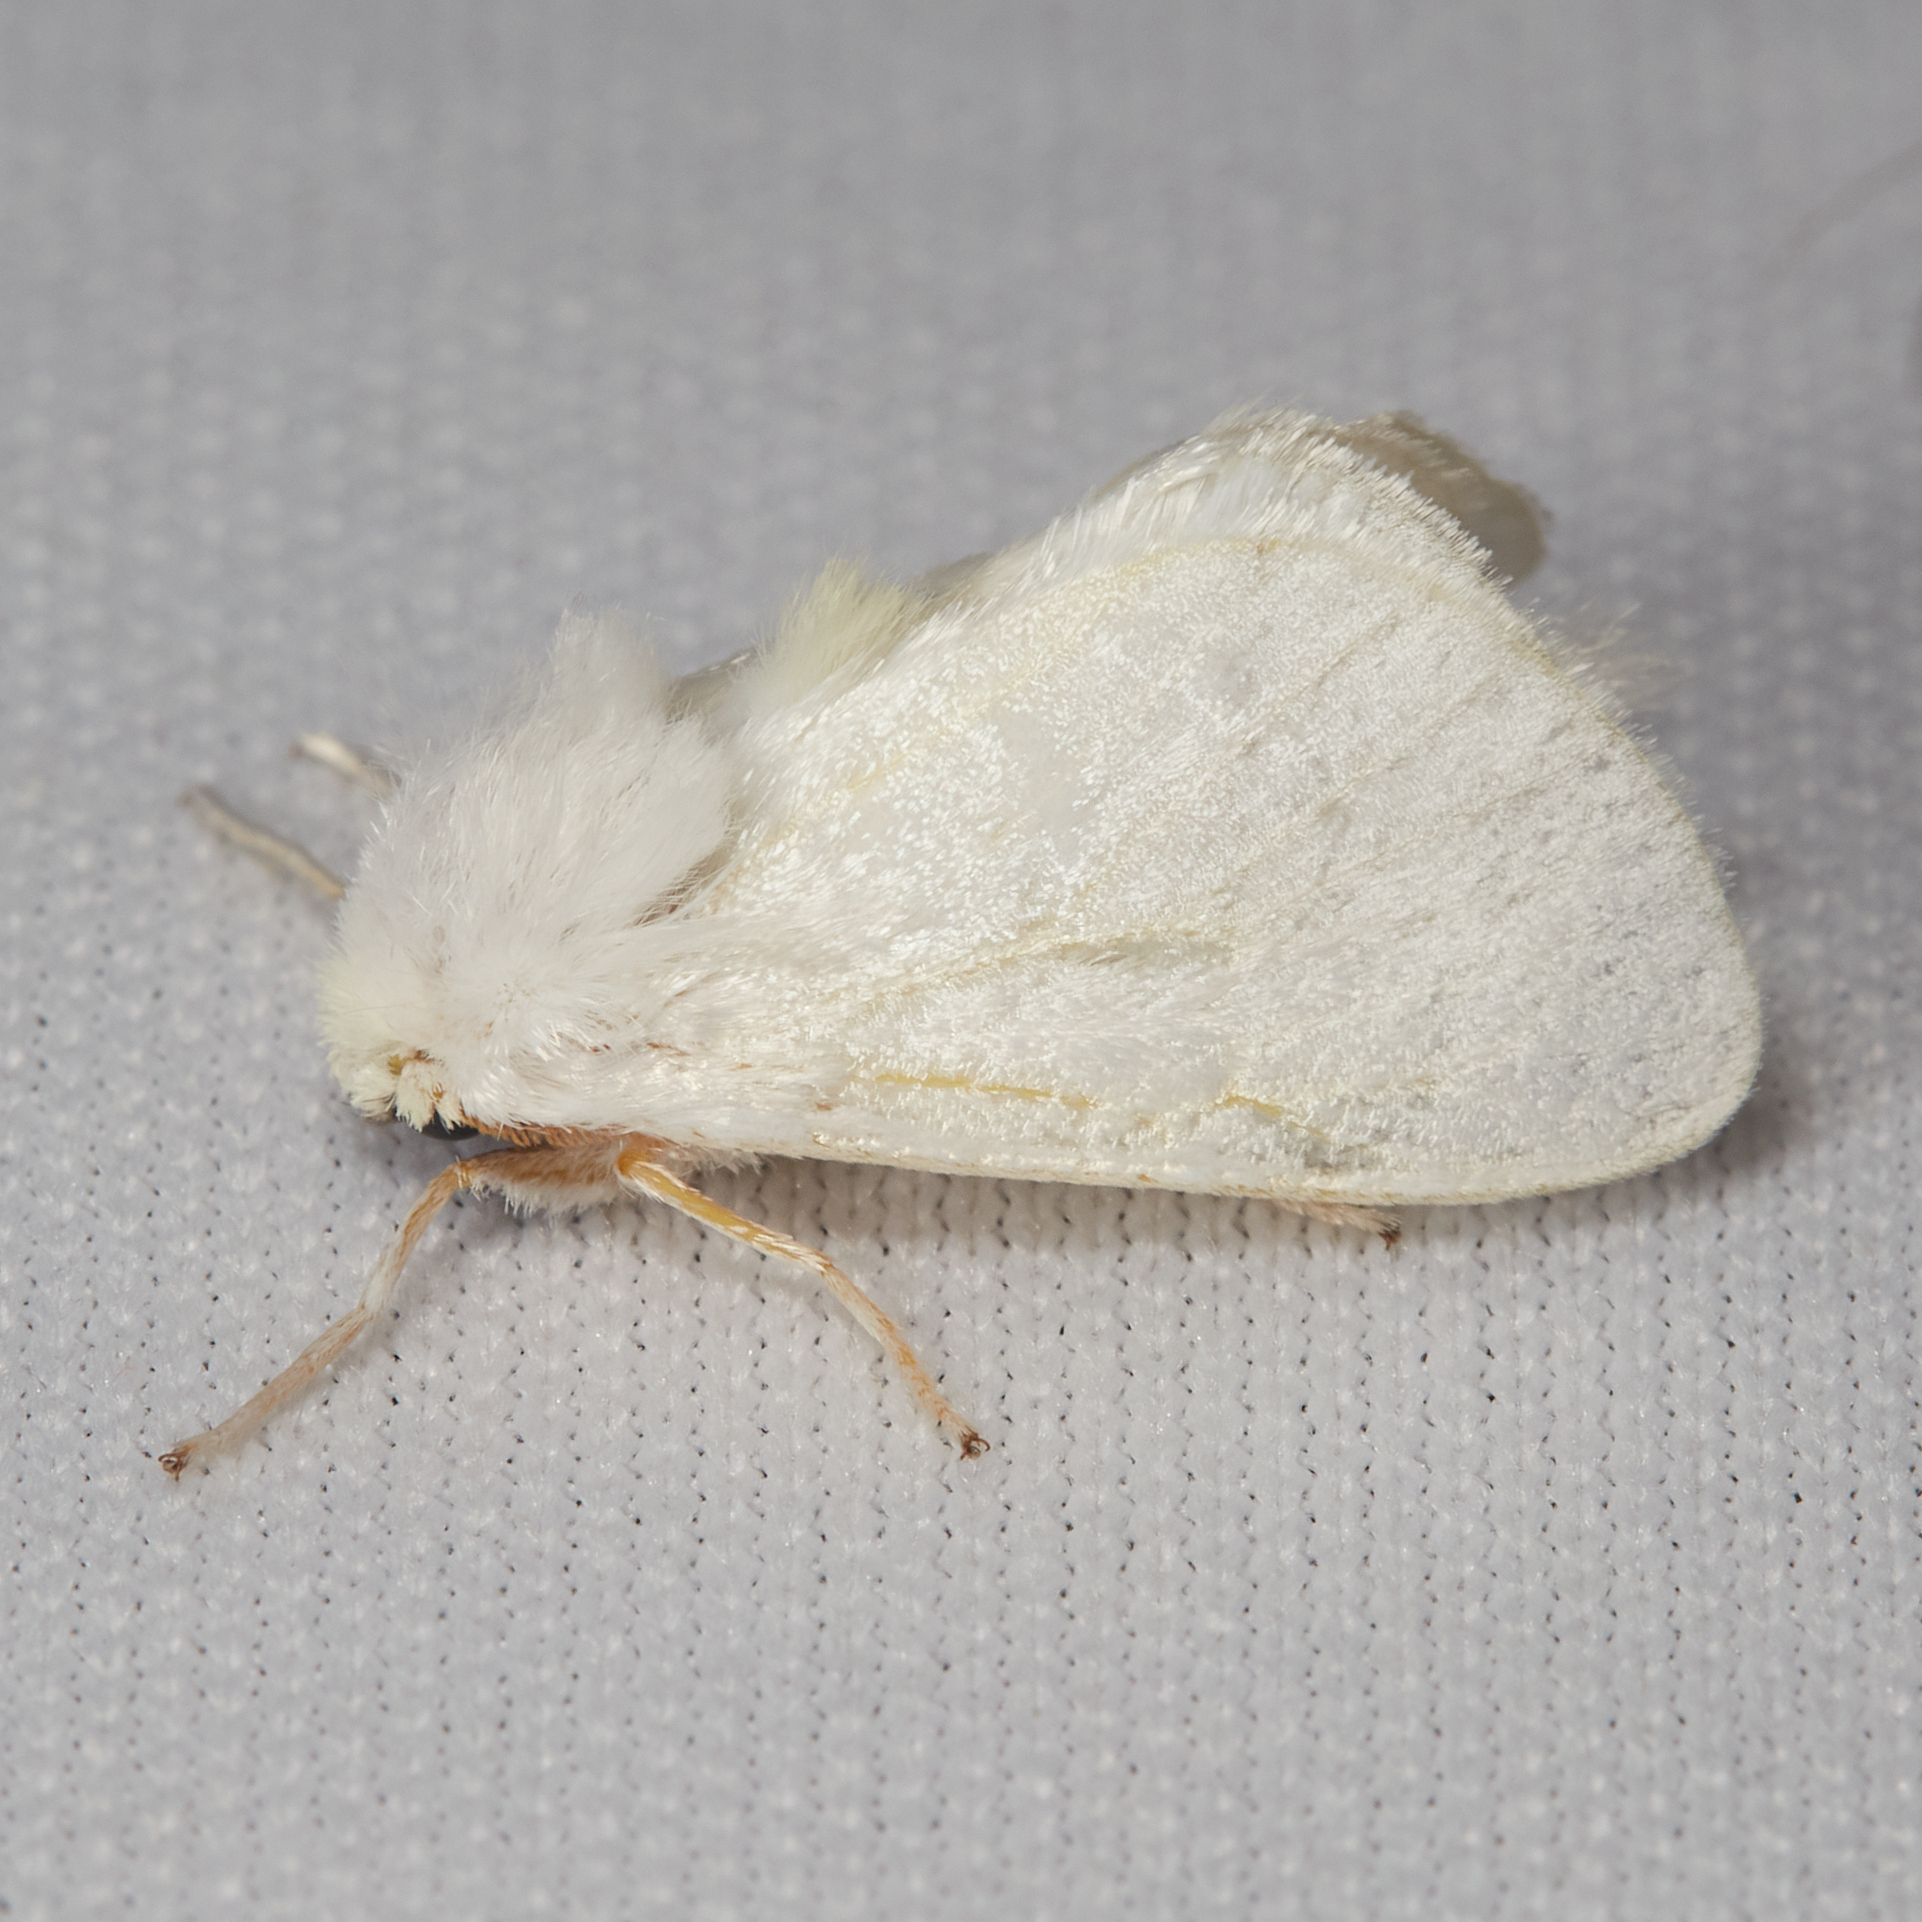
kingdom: Animalia
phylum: Arthropoda
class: Insecta
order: Lepidoptera
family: Megalopygidae
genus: Norape
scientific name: Norape cretata
